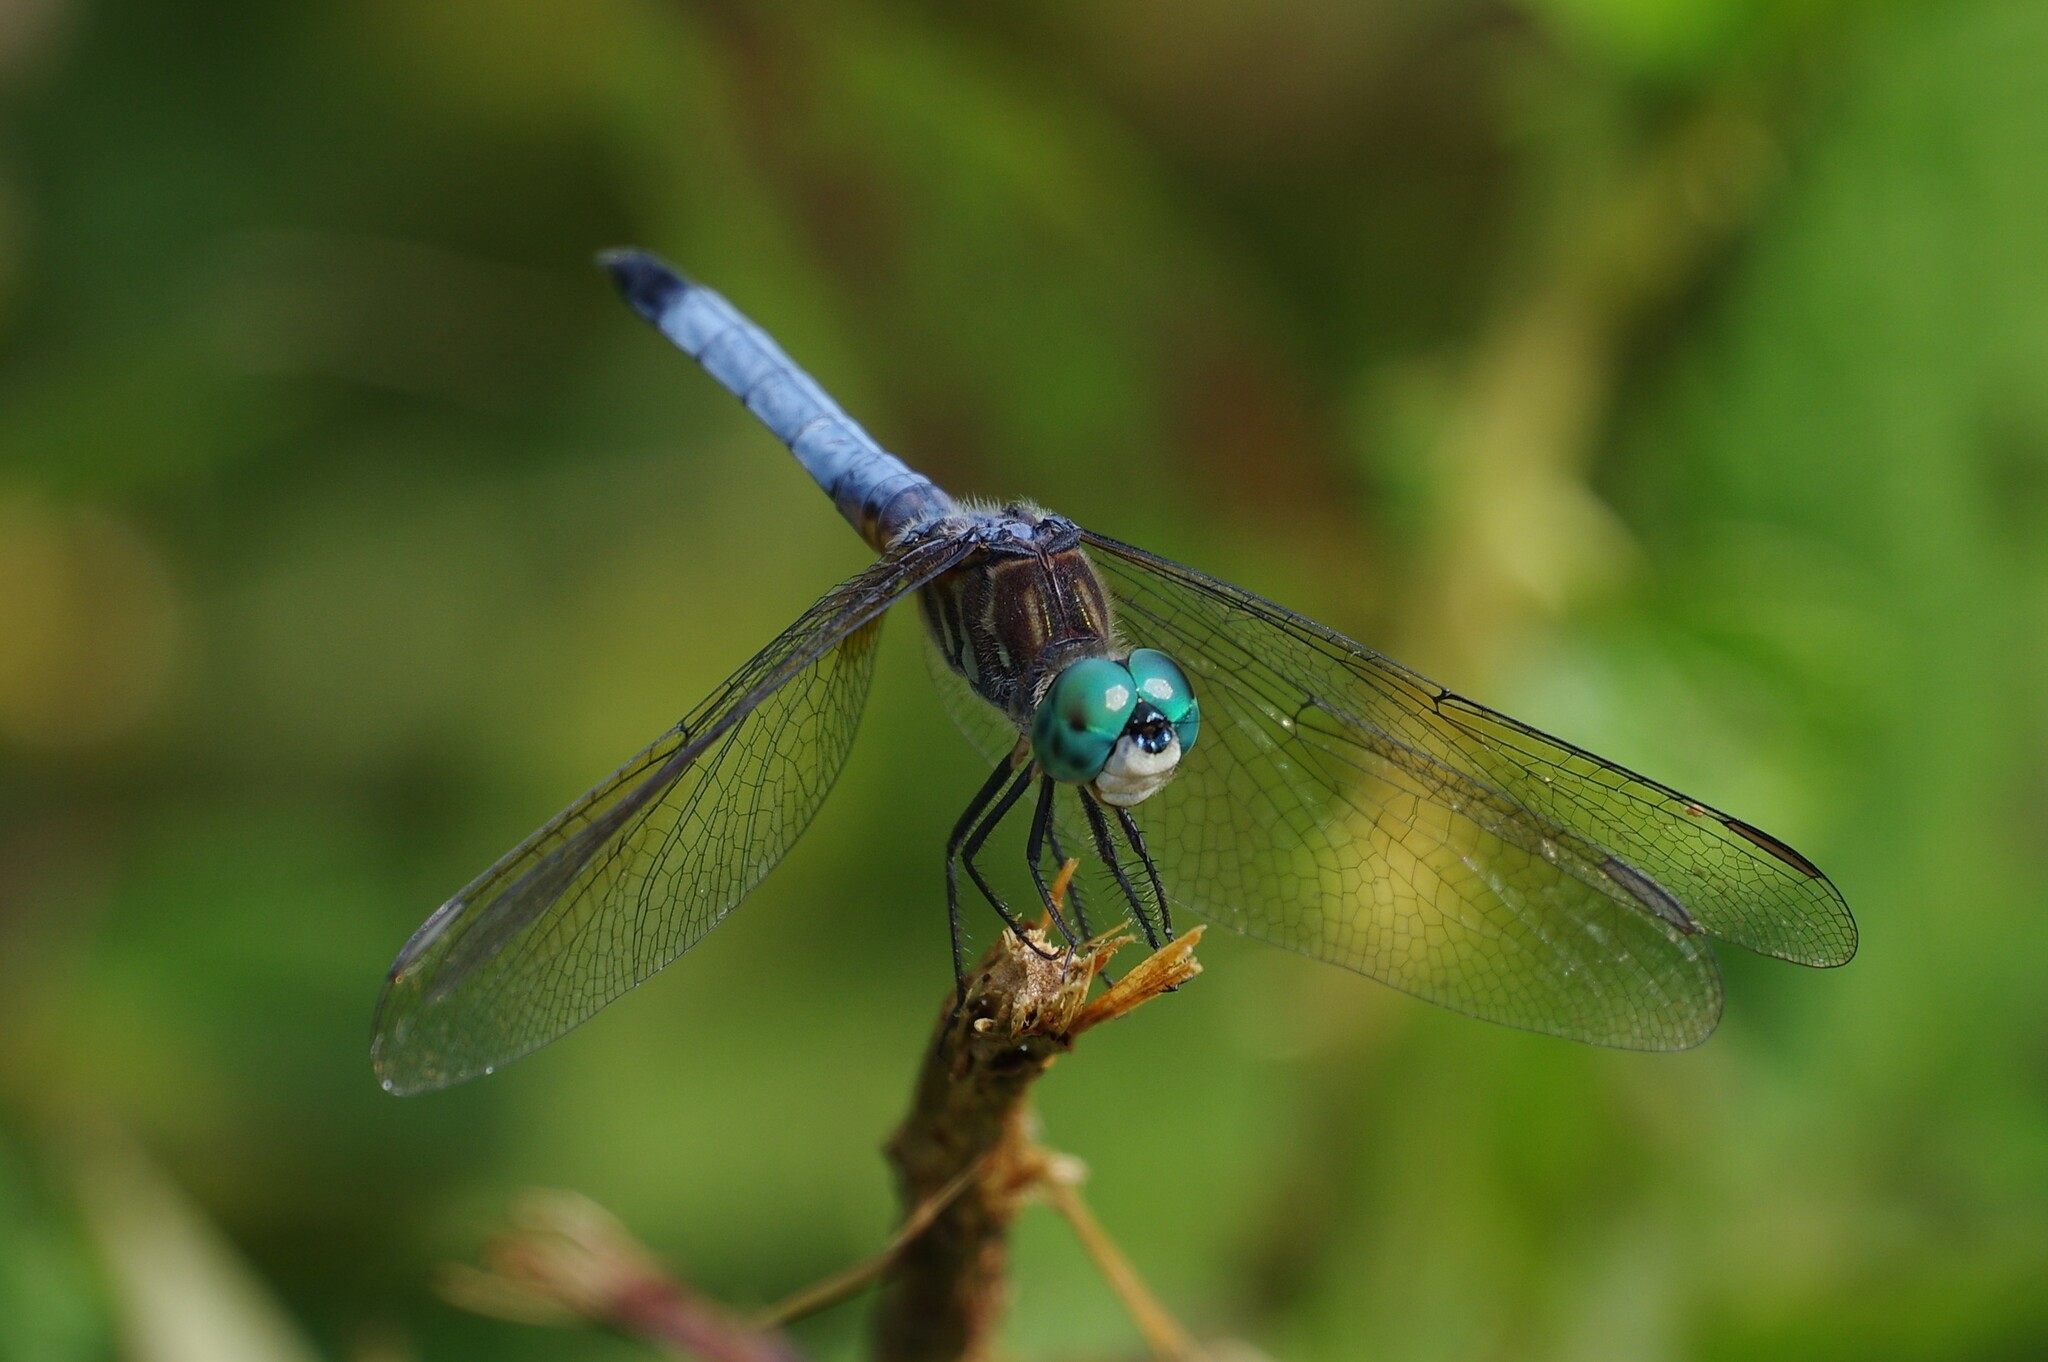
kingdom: Animalia
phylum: Arthropoda
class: Insecta
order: Odonata
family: Libellulidae
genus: Pachydiplax
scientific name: Pachydiplax longipennis
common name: Blue dasher
